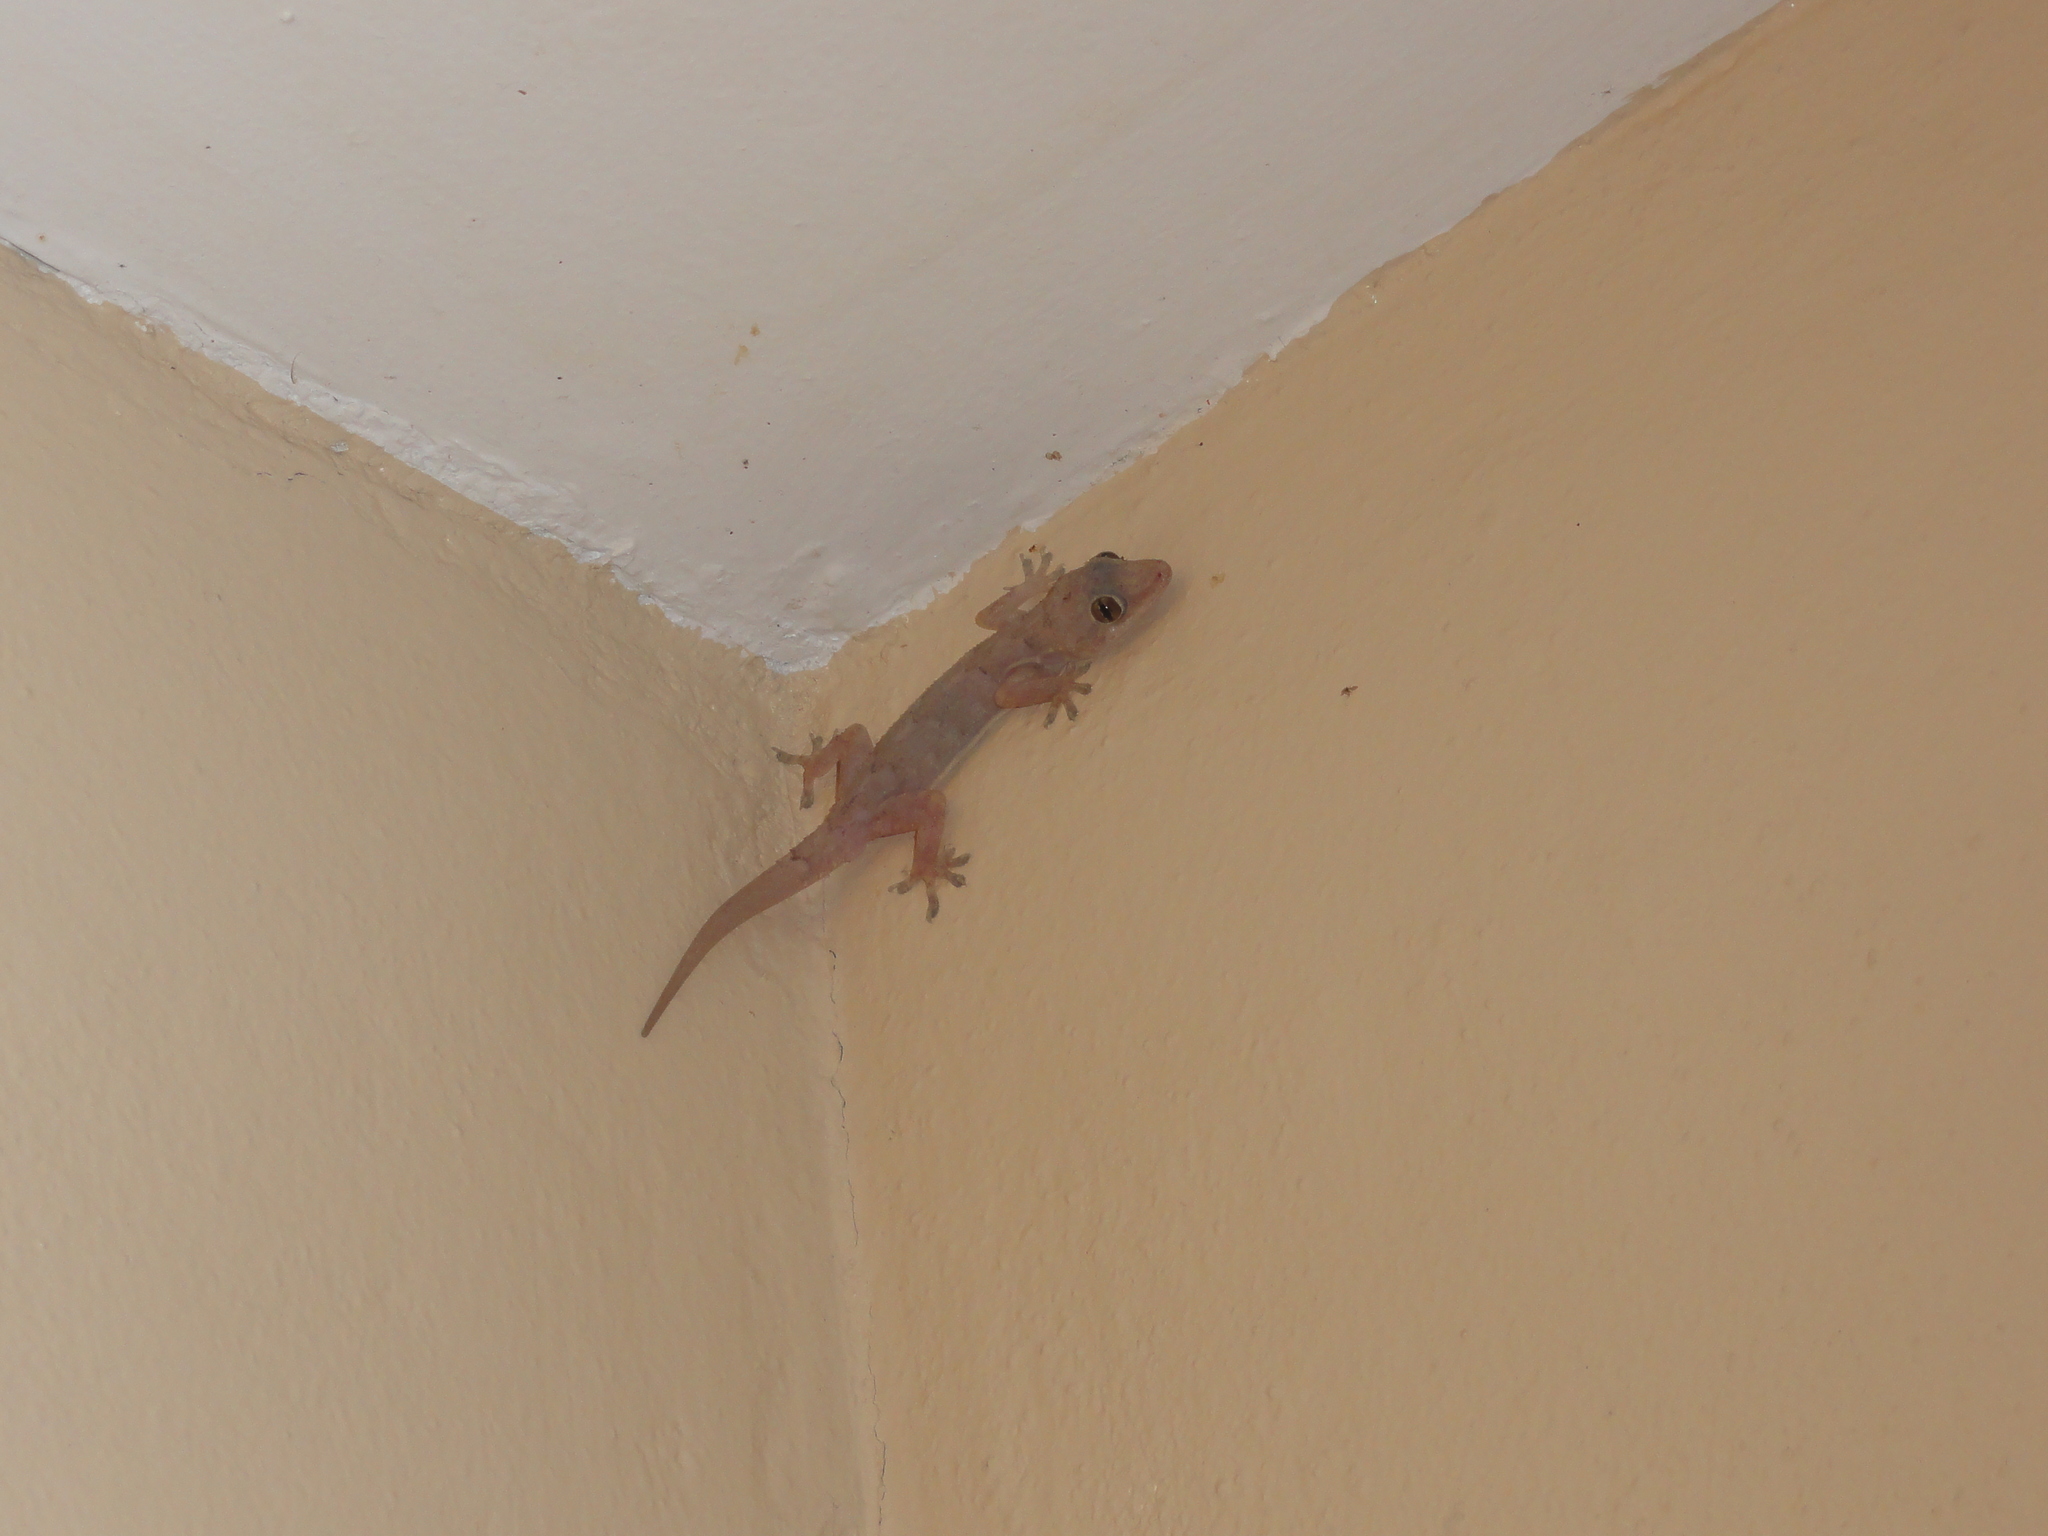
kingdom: Animalia
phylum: Chordata
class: Squamata
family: Gekkonidae
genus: Hemidactylus
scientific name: Hemidactylus mabouia
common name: House gecko
